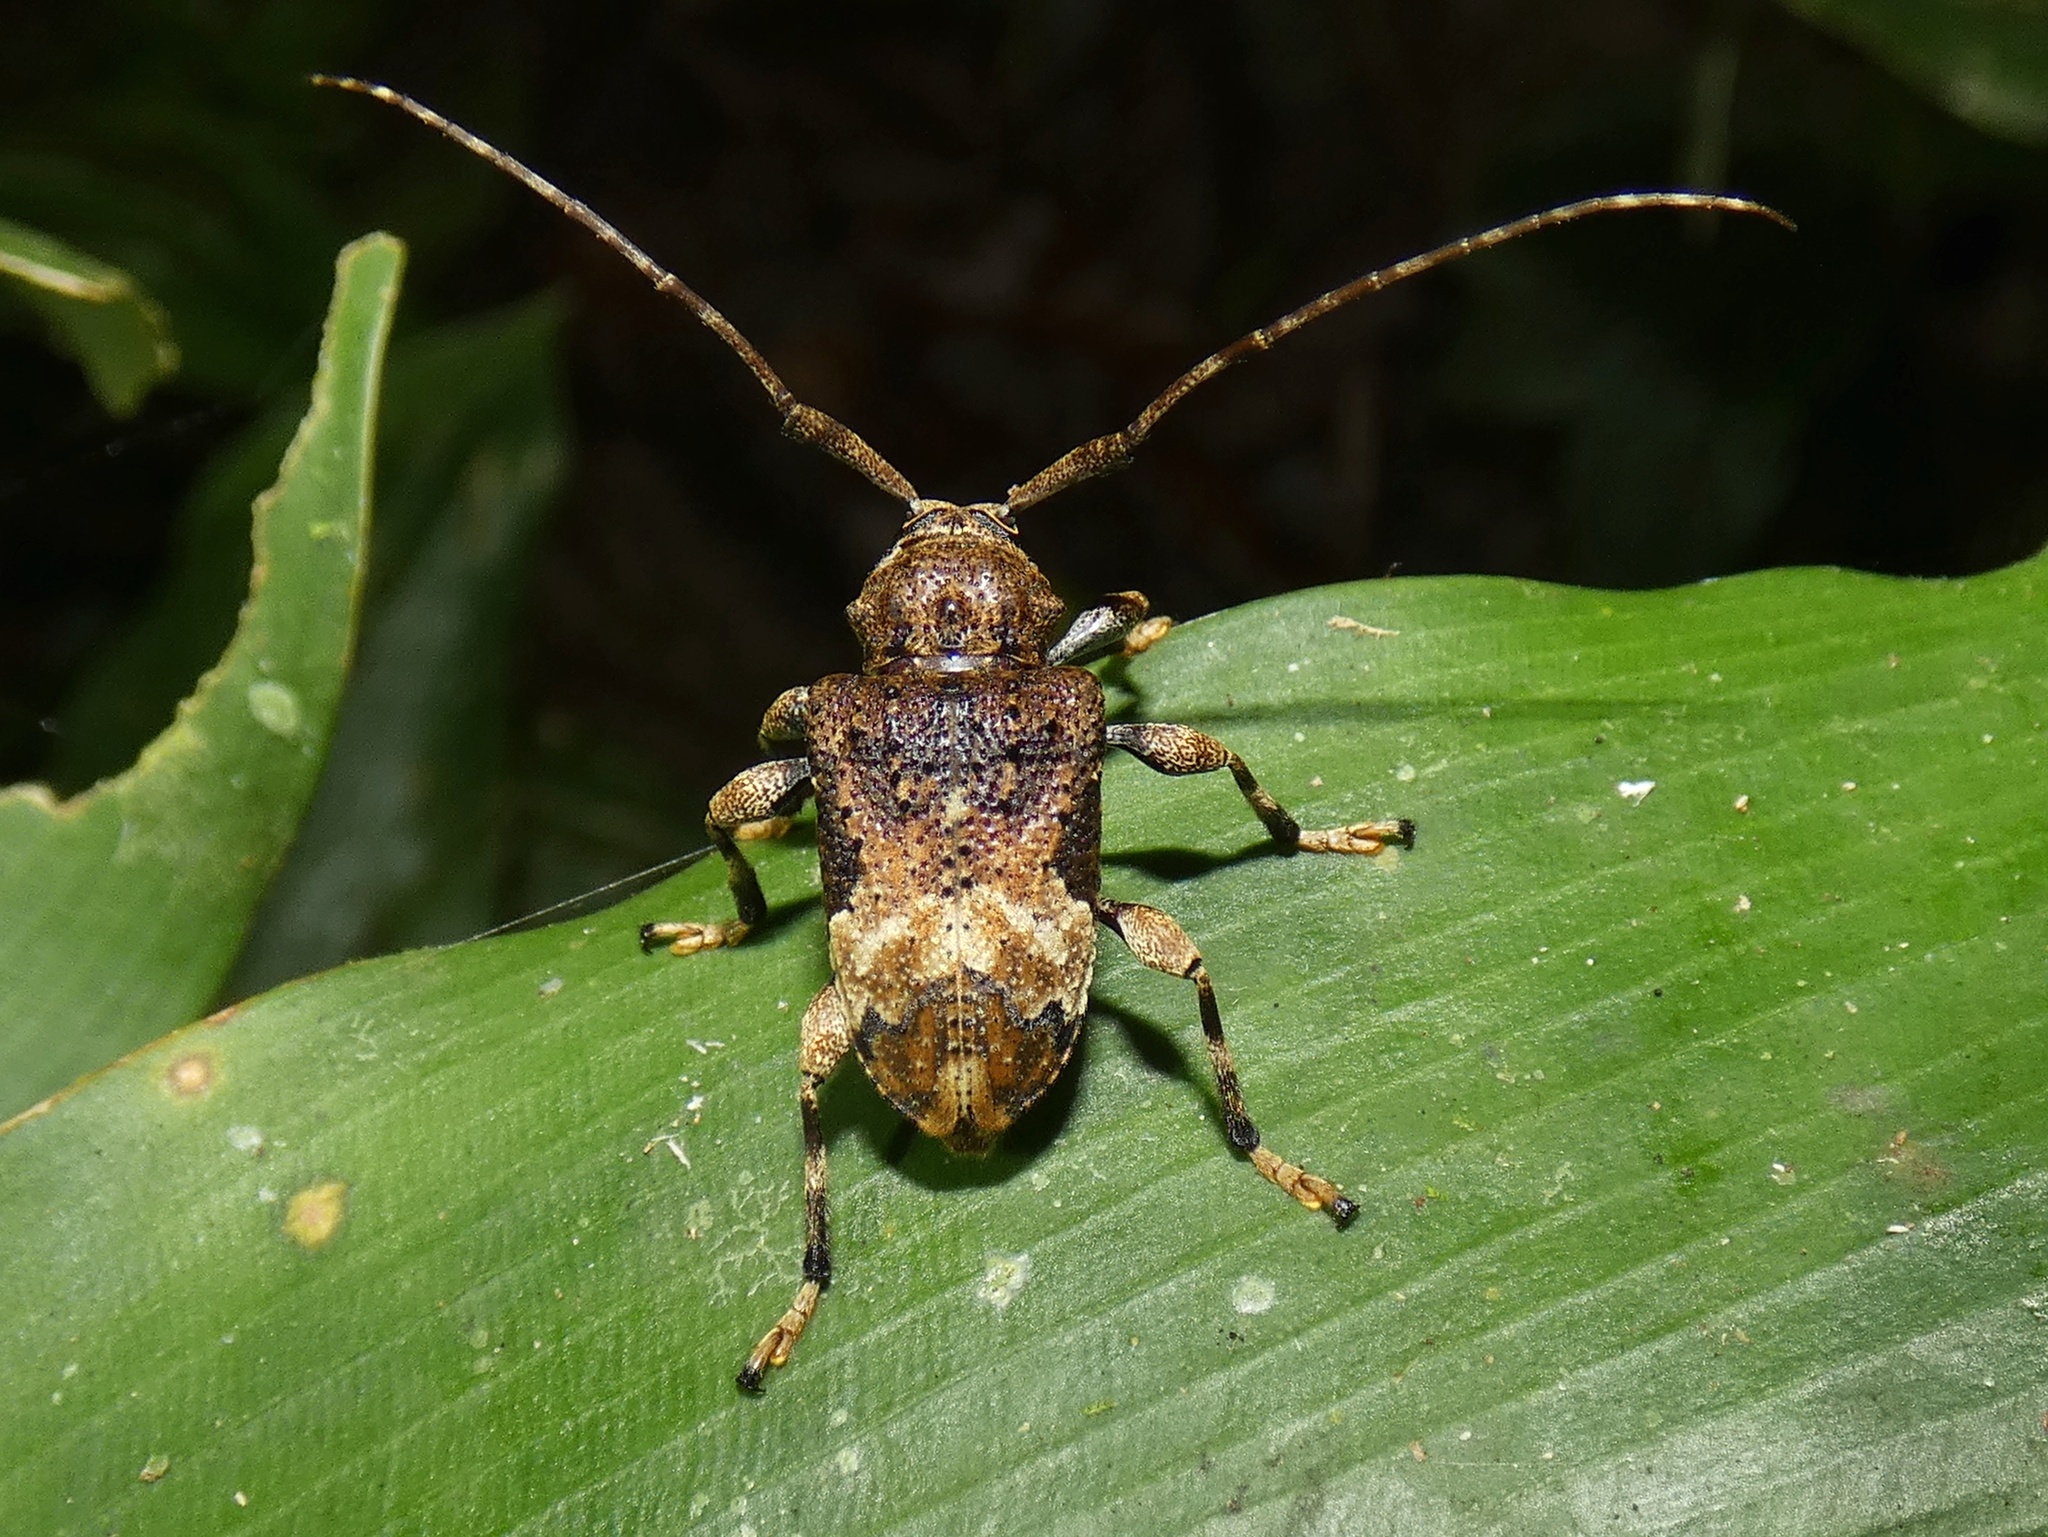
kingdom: Animalia
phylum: Arthropoda
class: Insecta
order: Coleoptera
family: Cerambycidae
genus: Lagocheirus
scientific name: Lagocheirus plantaris
